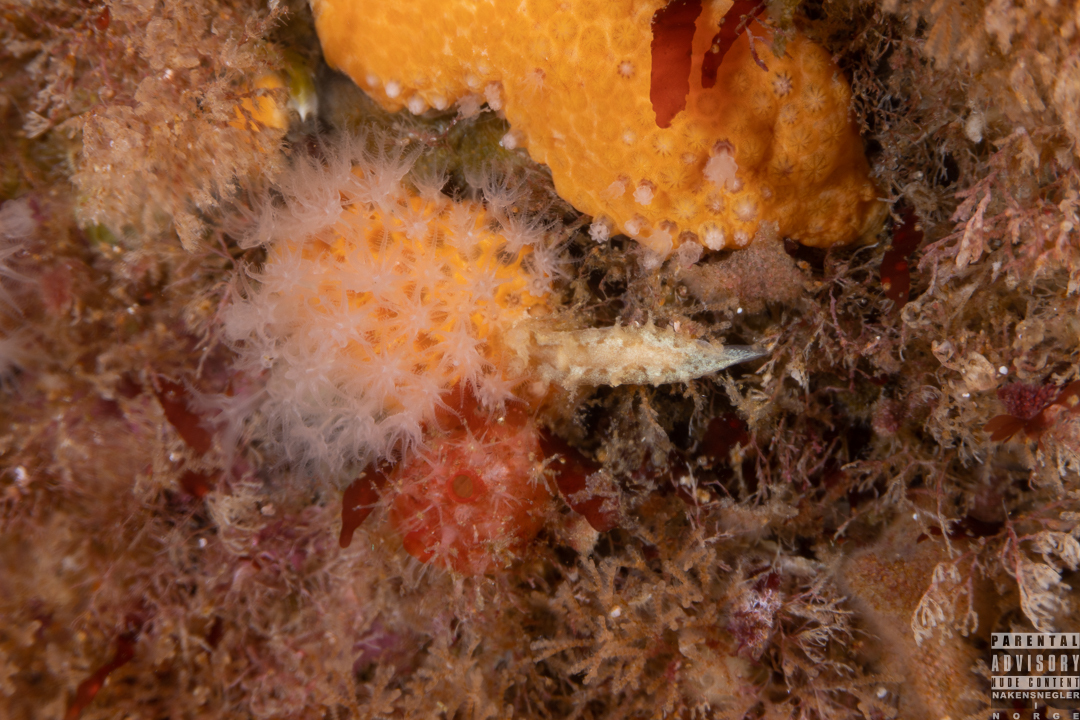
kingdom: Animalia
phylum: Mollusca
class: Gastropoda
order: Nudibranchia
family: Tritoniidae
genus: Duvaucelia
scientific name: Duvaucelia plebeia
